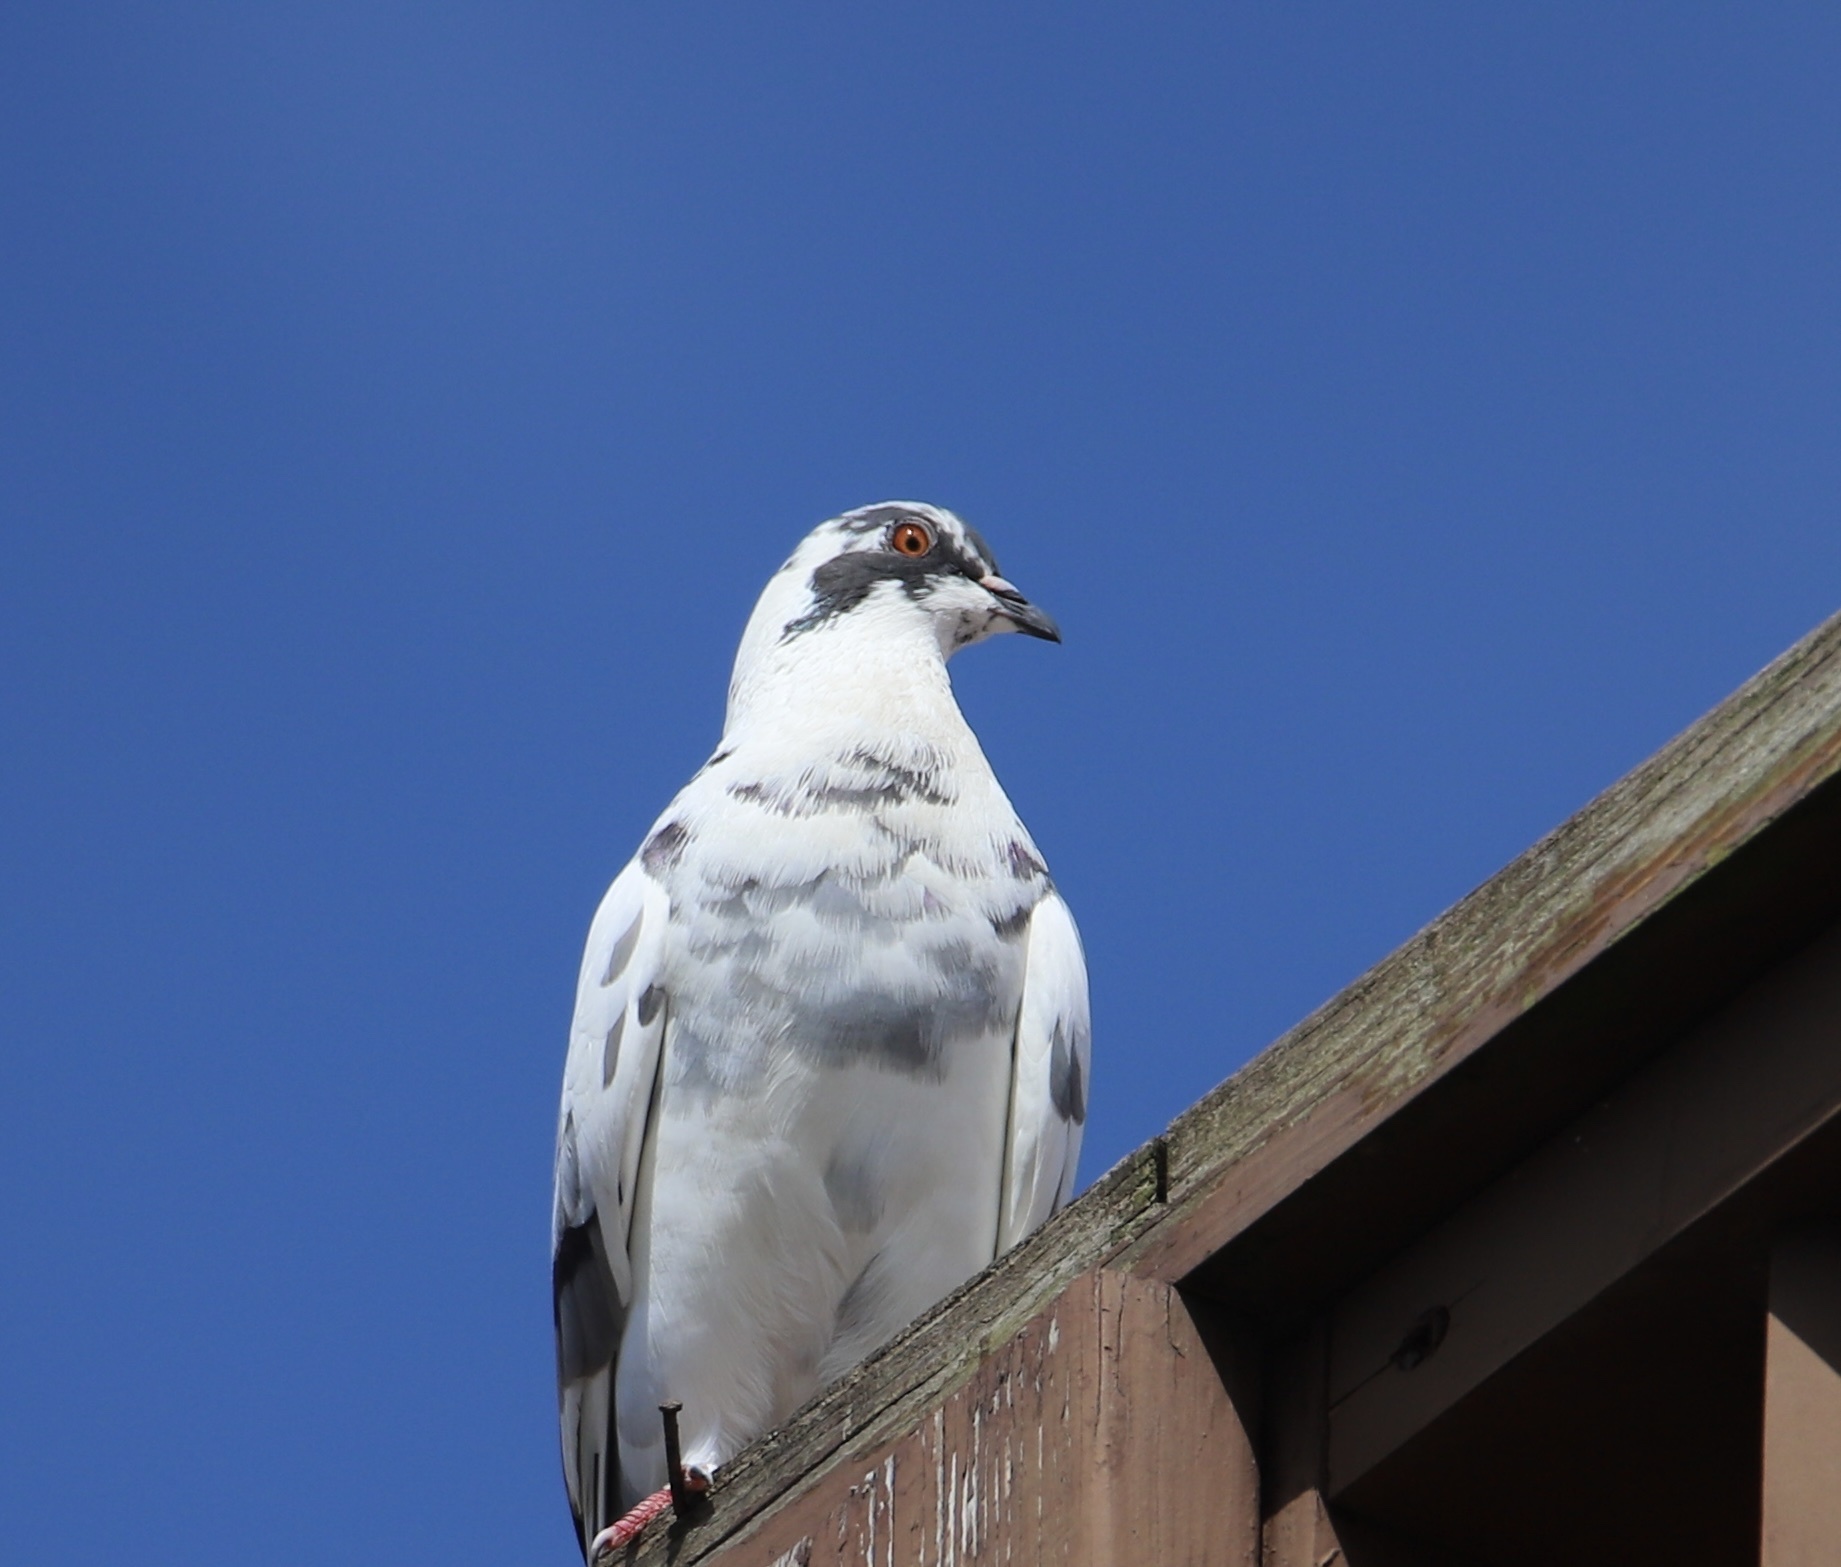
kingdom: Animalia
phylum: Chordata
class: Aves
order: Columbiformes
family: Columbidae
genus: Columba
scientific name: Columba livia
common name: Rock pigeon
